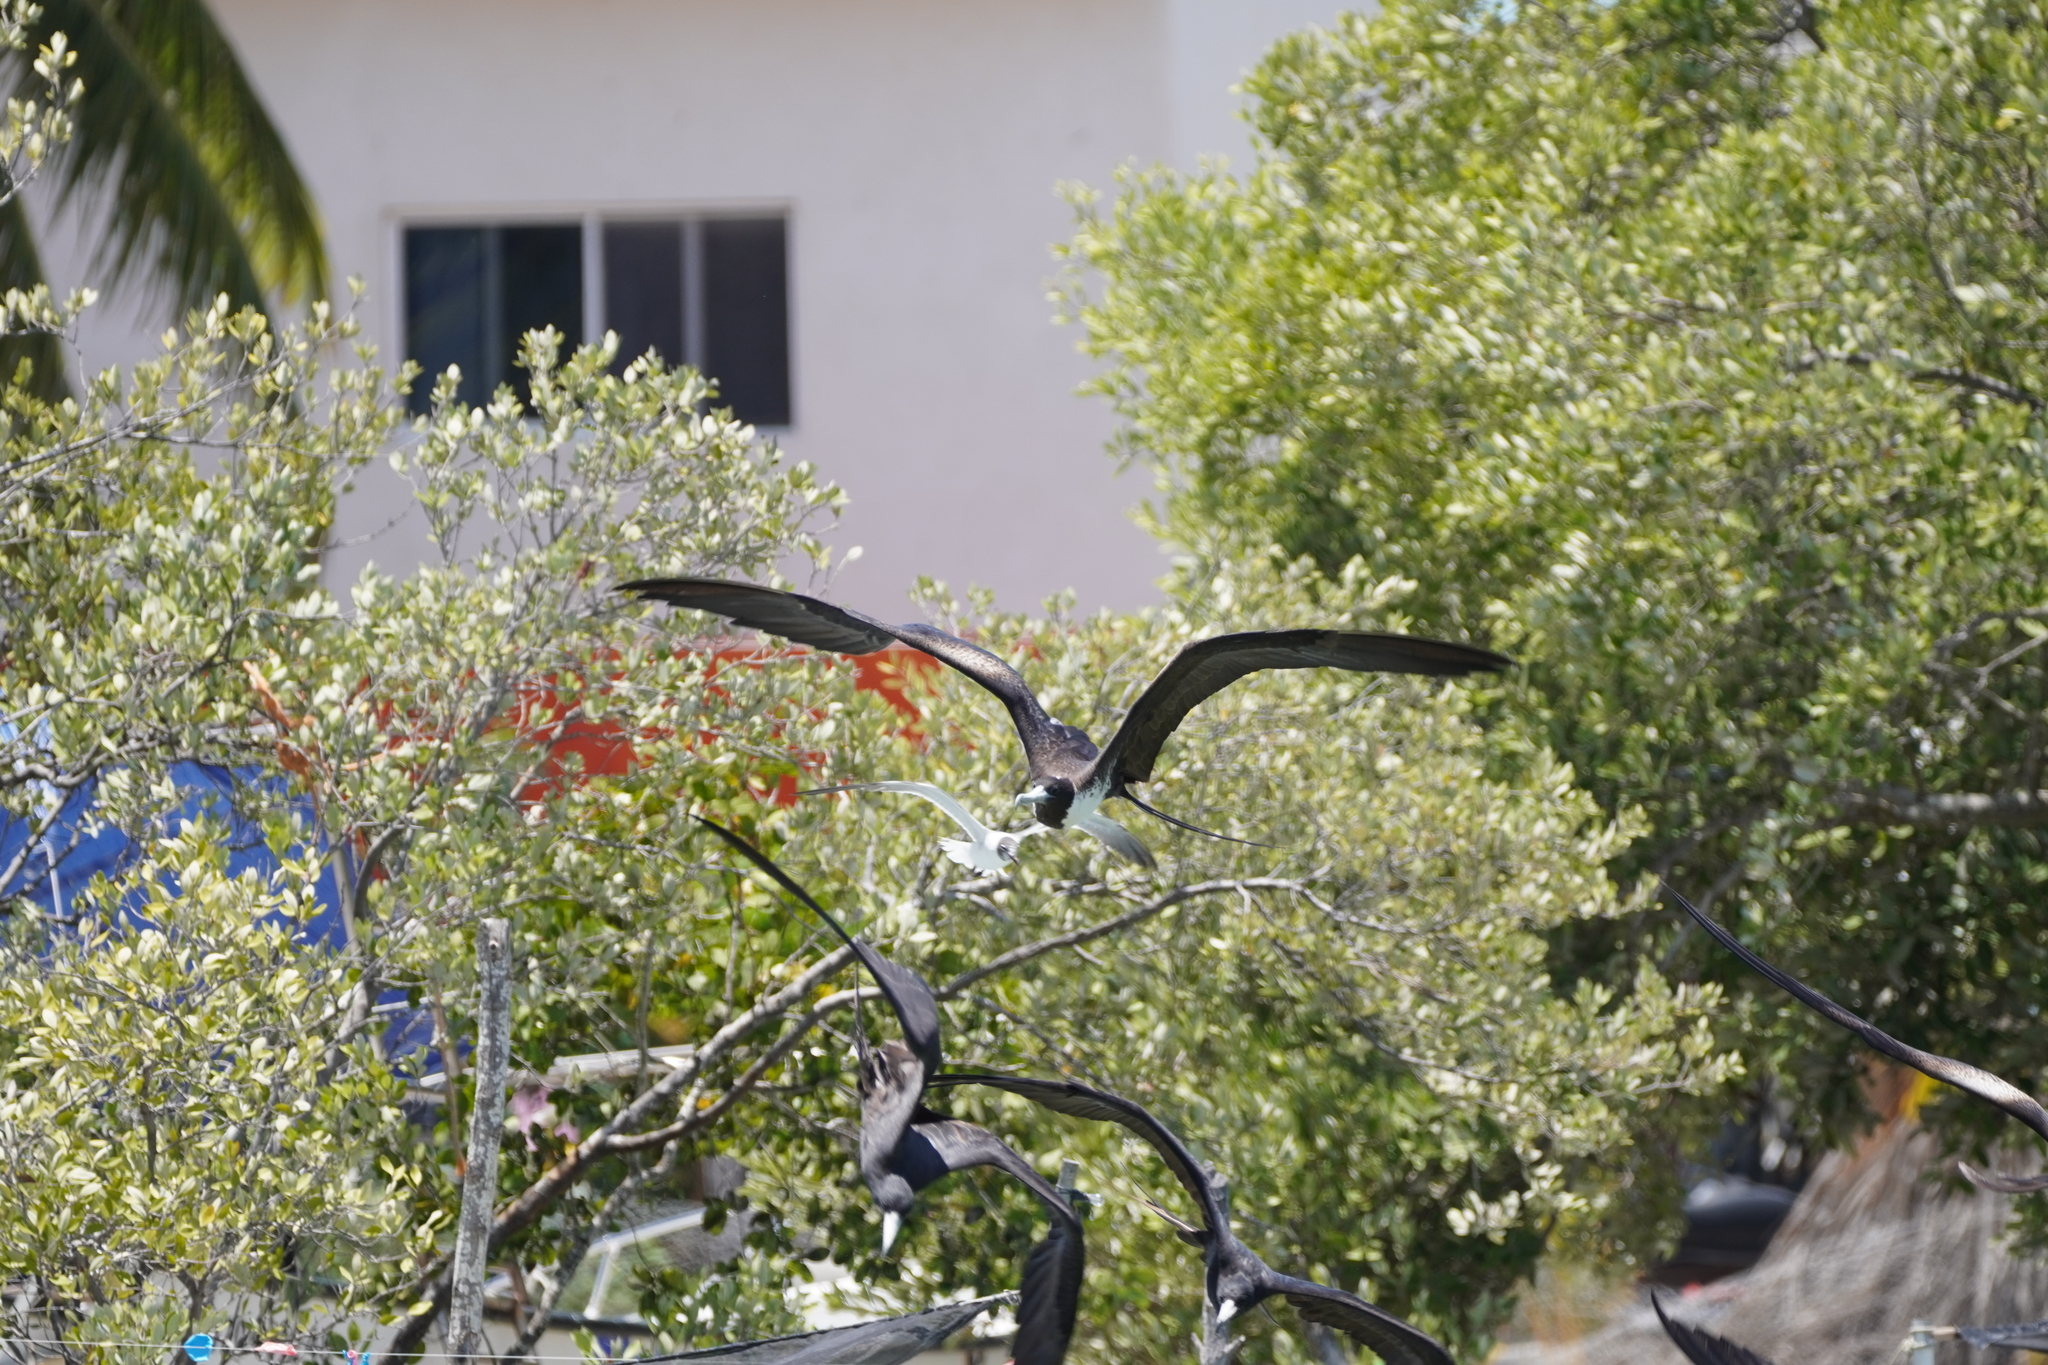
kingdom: Animalia
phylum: Chordata
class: Aves
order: Suliformes
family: Fregatidae
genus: Fregata
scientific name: Fregata magnificens
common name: Magnificent frigatebird
